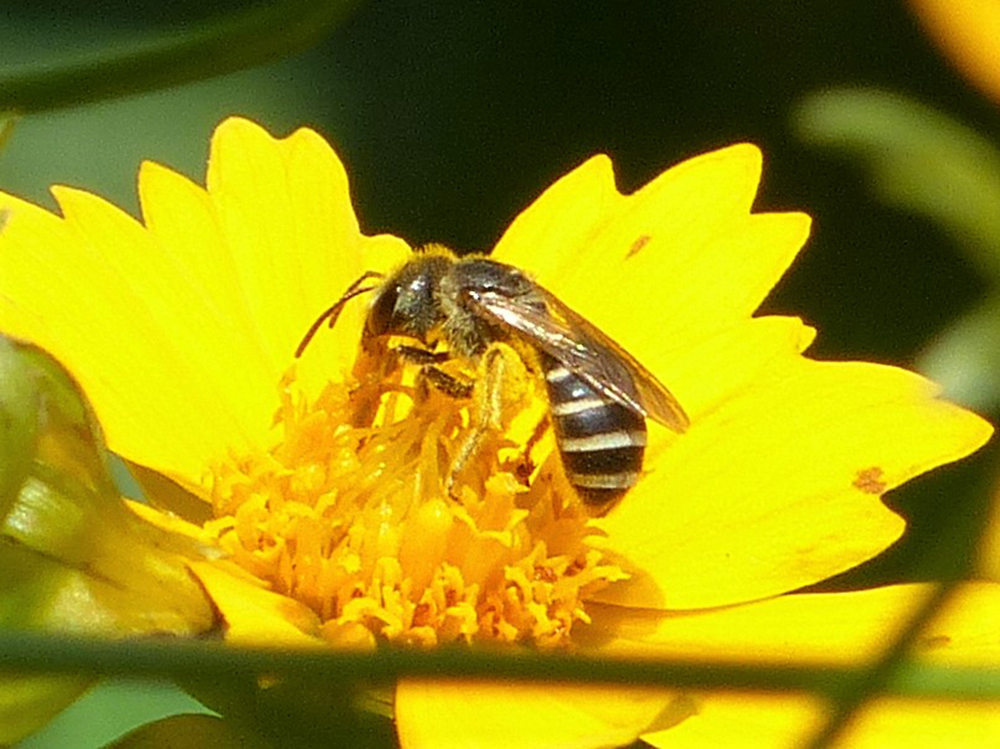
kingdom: Animalia
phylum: Arthropoda
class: Insecta
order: Hymenoptera
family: Halictidae
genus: Halictus
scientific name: Halictus ligatus
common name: Ligated furrow bee
